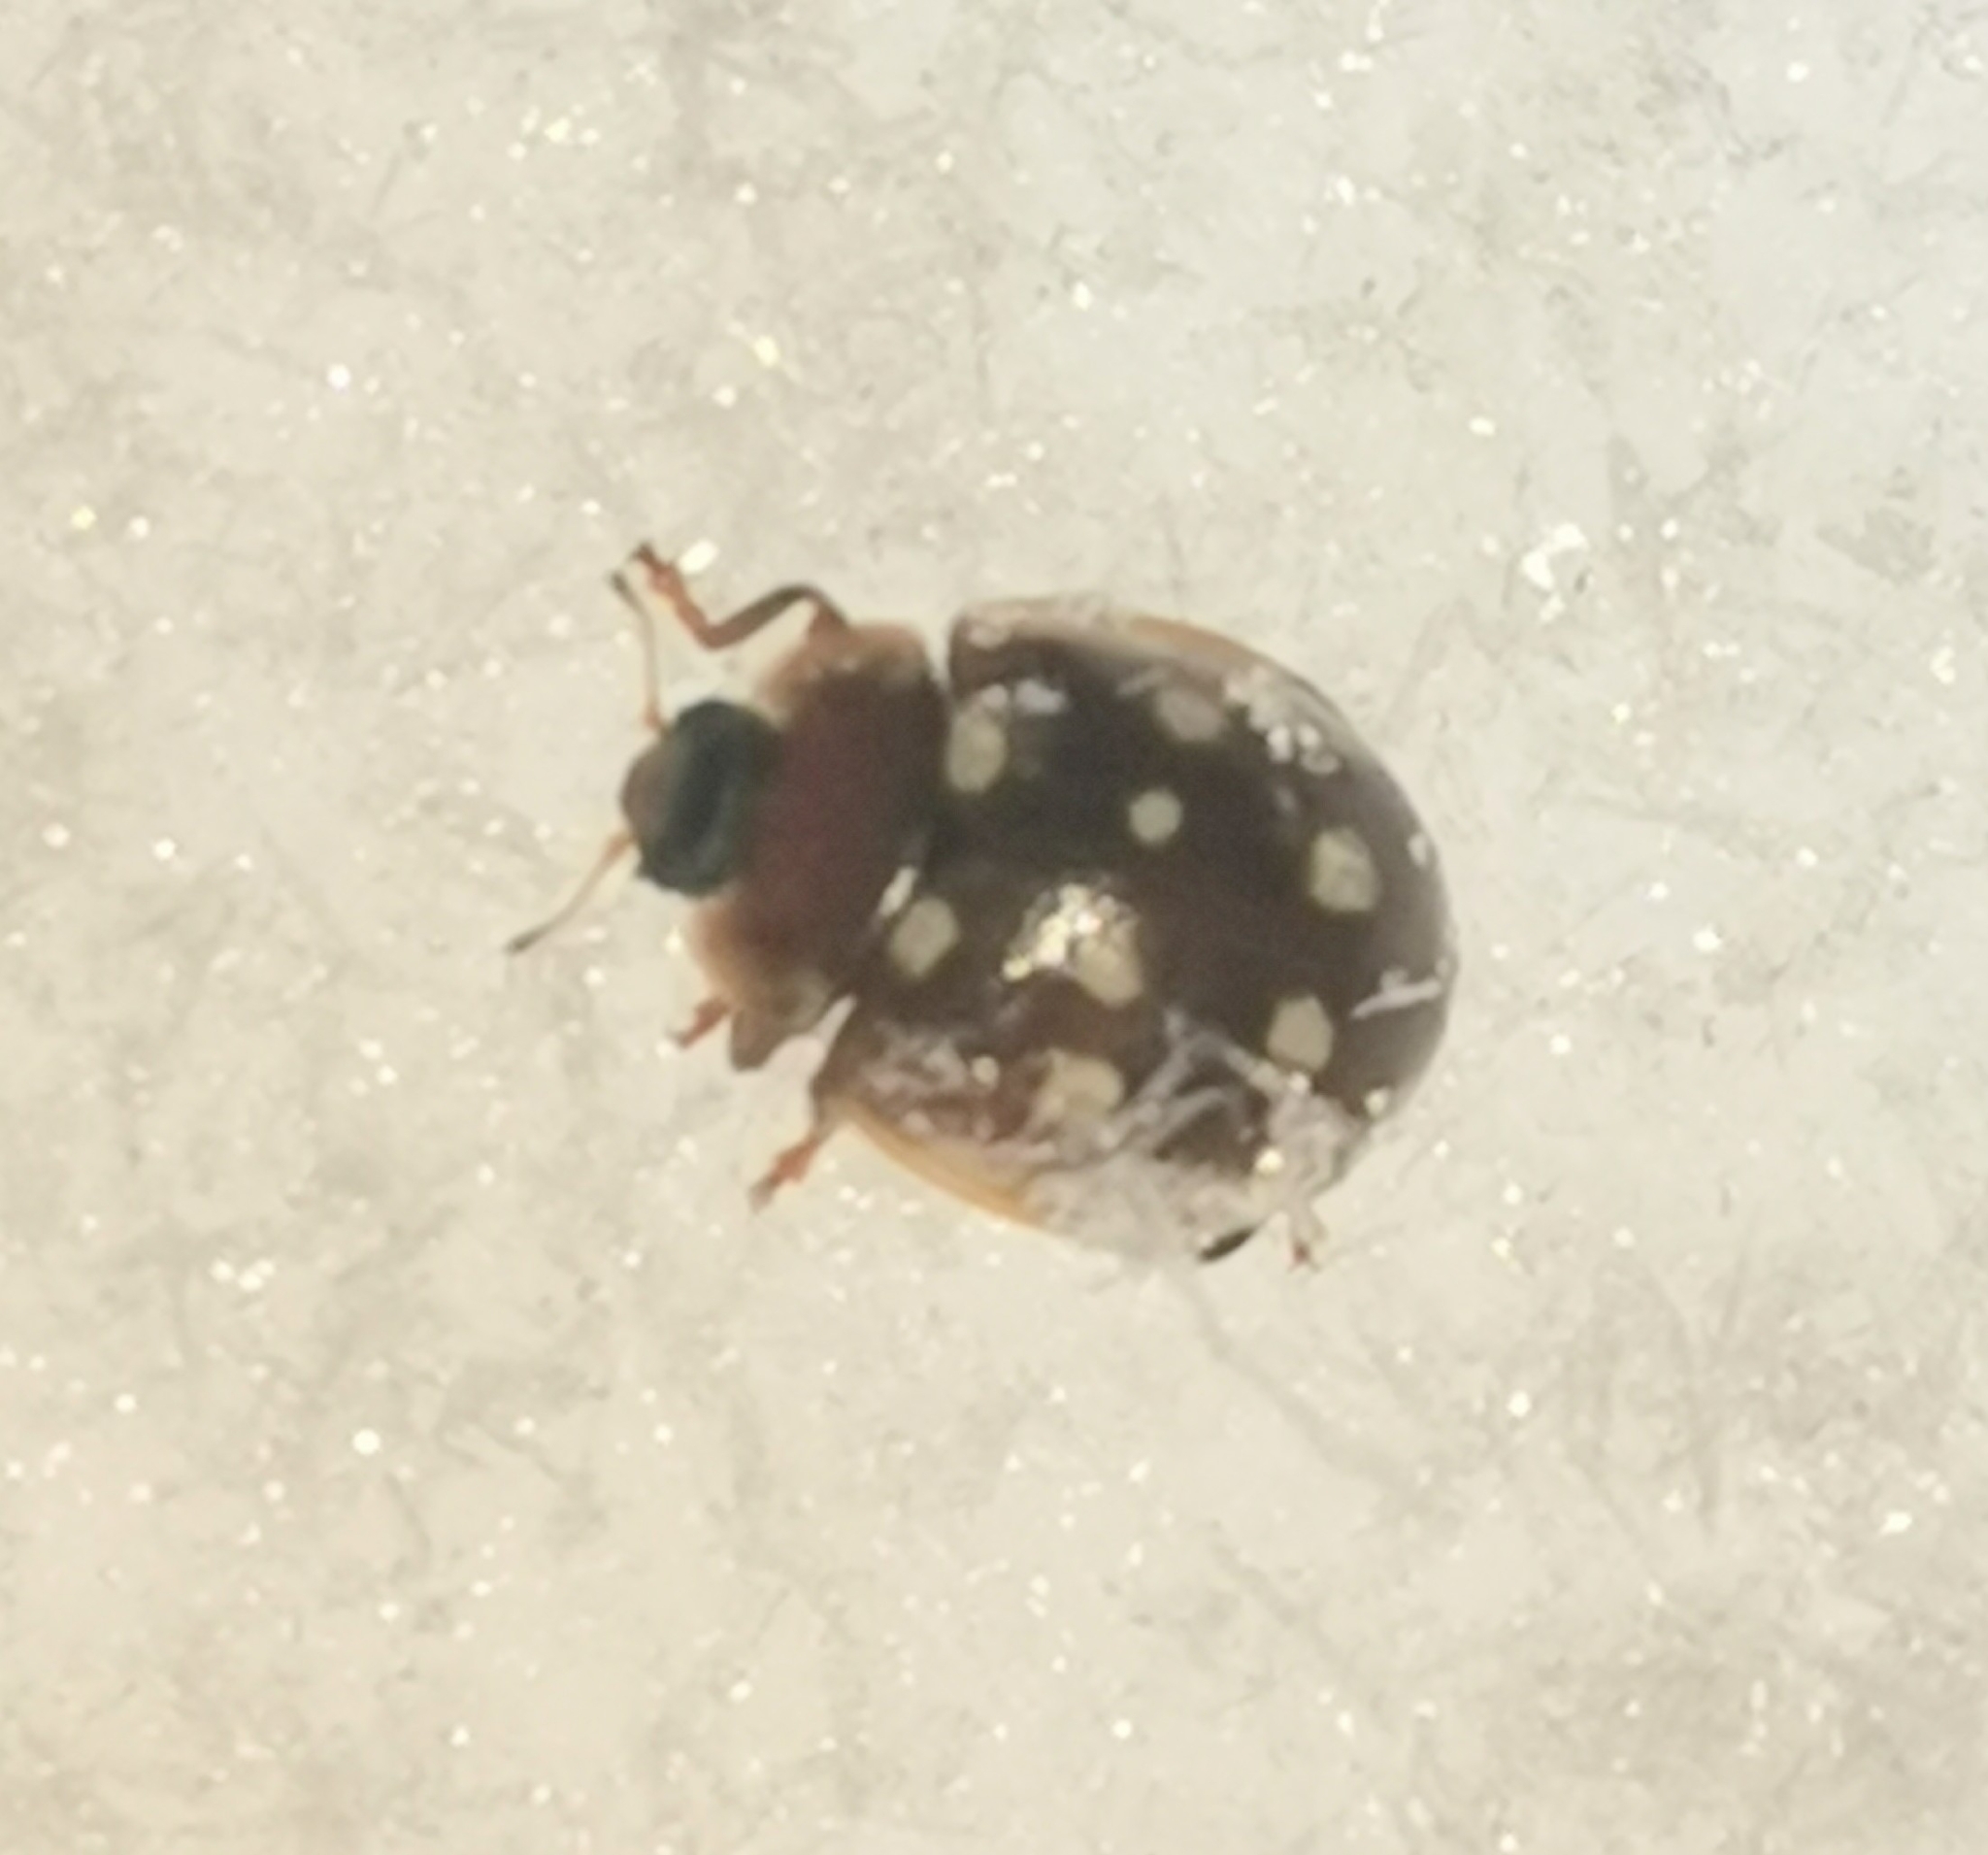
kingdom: Animalia
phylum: Arthropoda
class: Insecta
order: Coleoptera
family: Coccinellidae
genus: Calvia
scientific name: Calvia quatuordecimguttata
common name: Cream-spot ladybird
